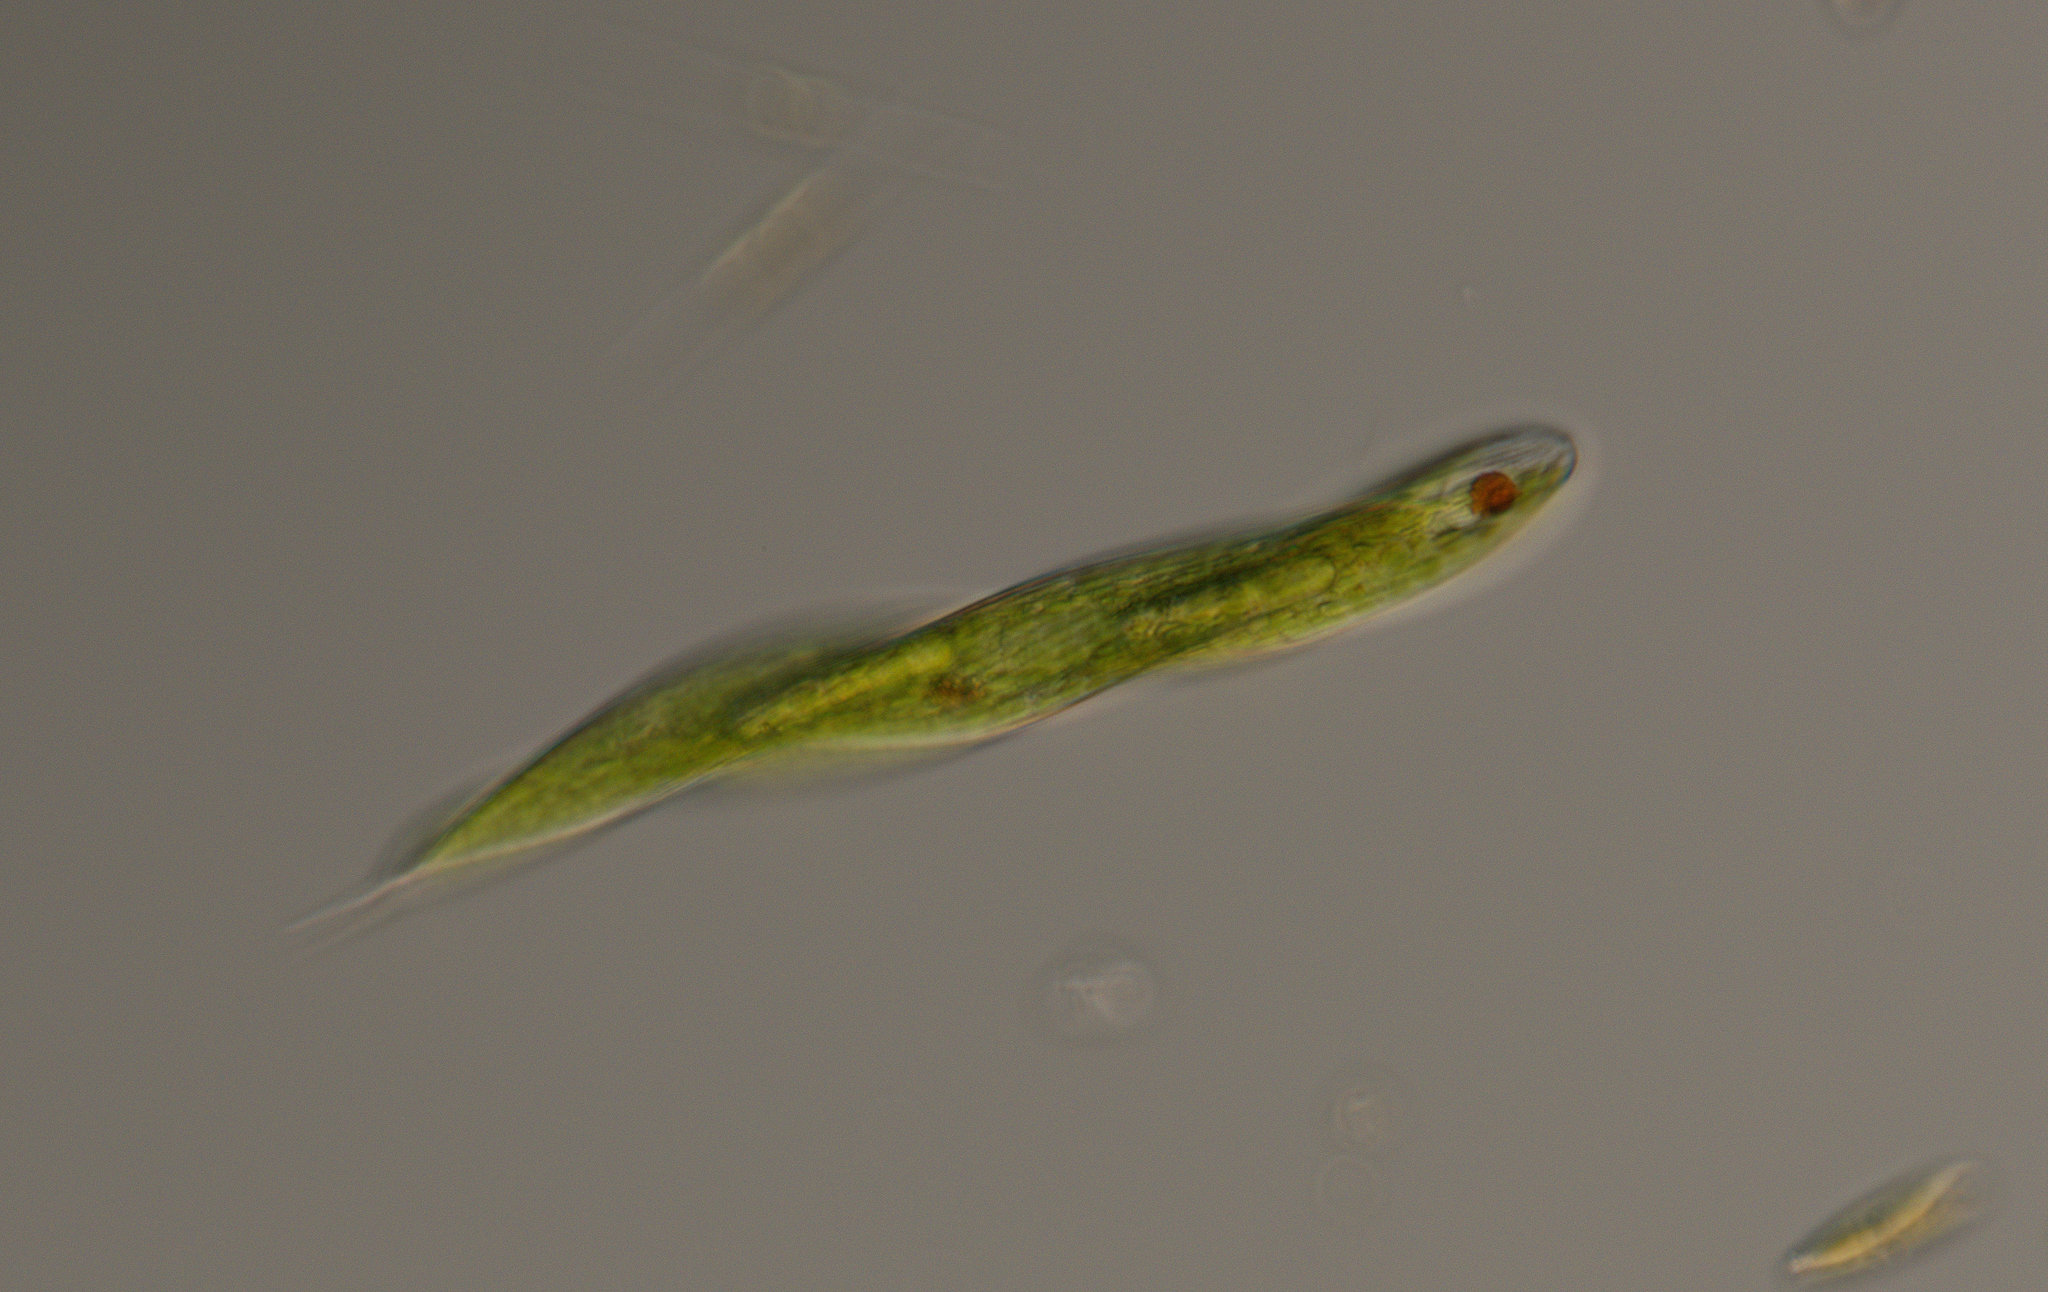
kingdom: Protozoa
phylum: Euglenozoa
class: Euglenoidea
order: Euglenida
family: Phacidae
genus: Lepocinclis
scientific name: Lepocinclis tripteris
